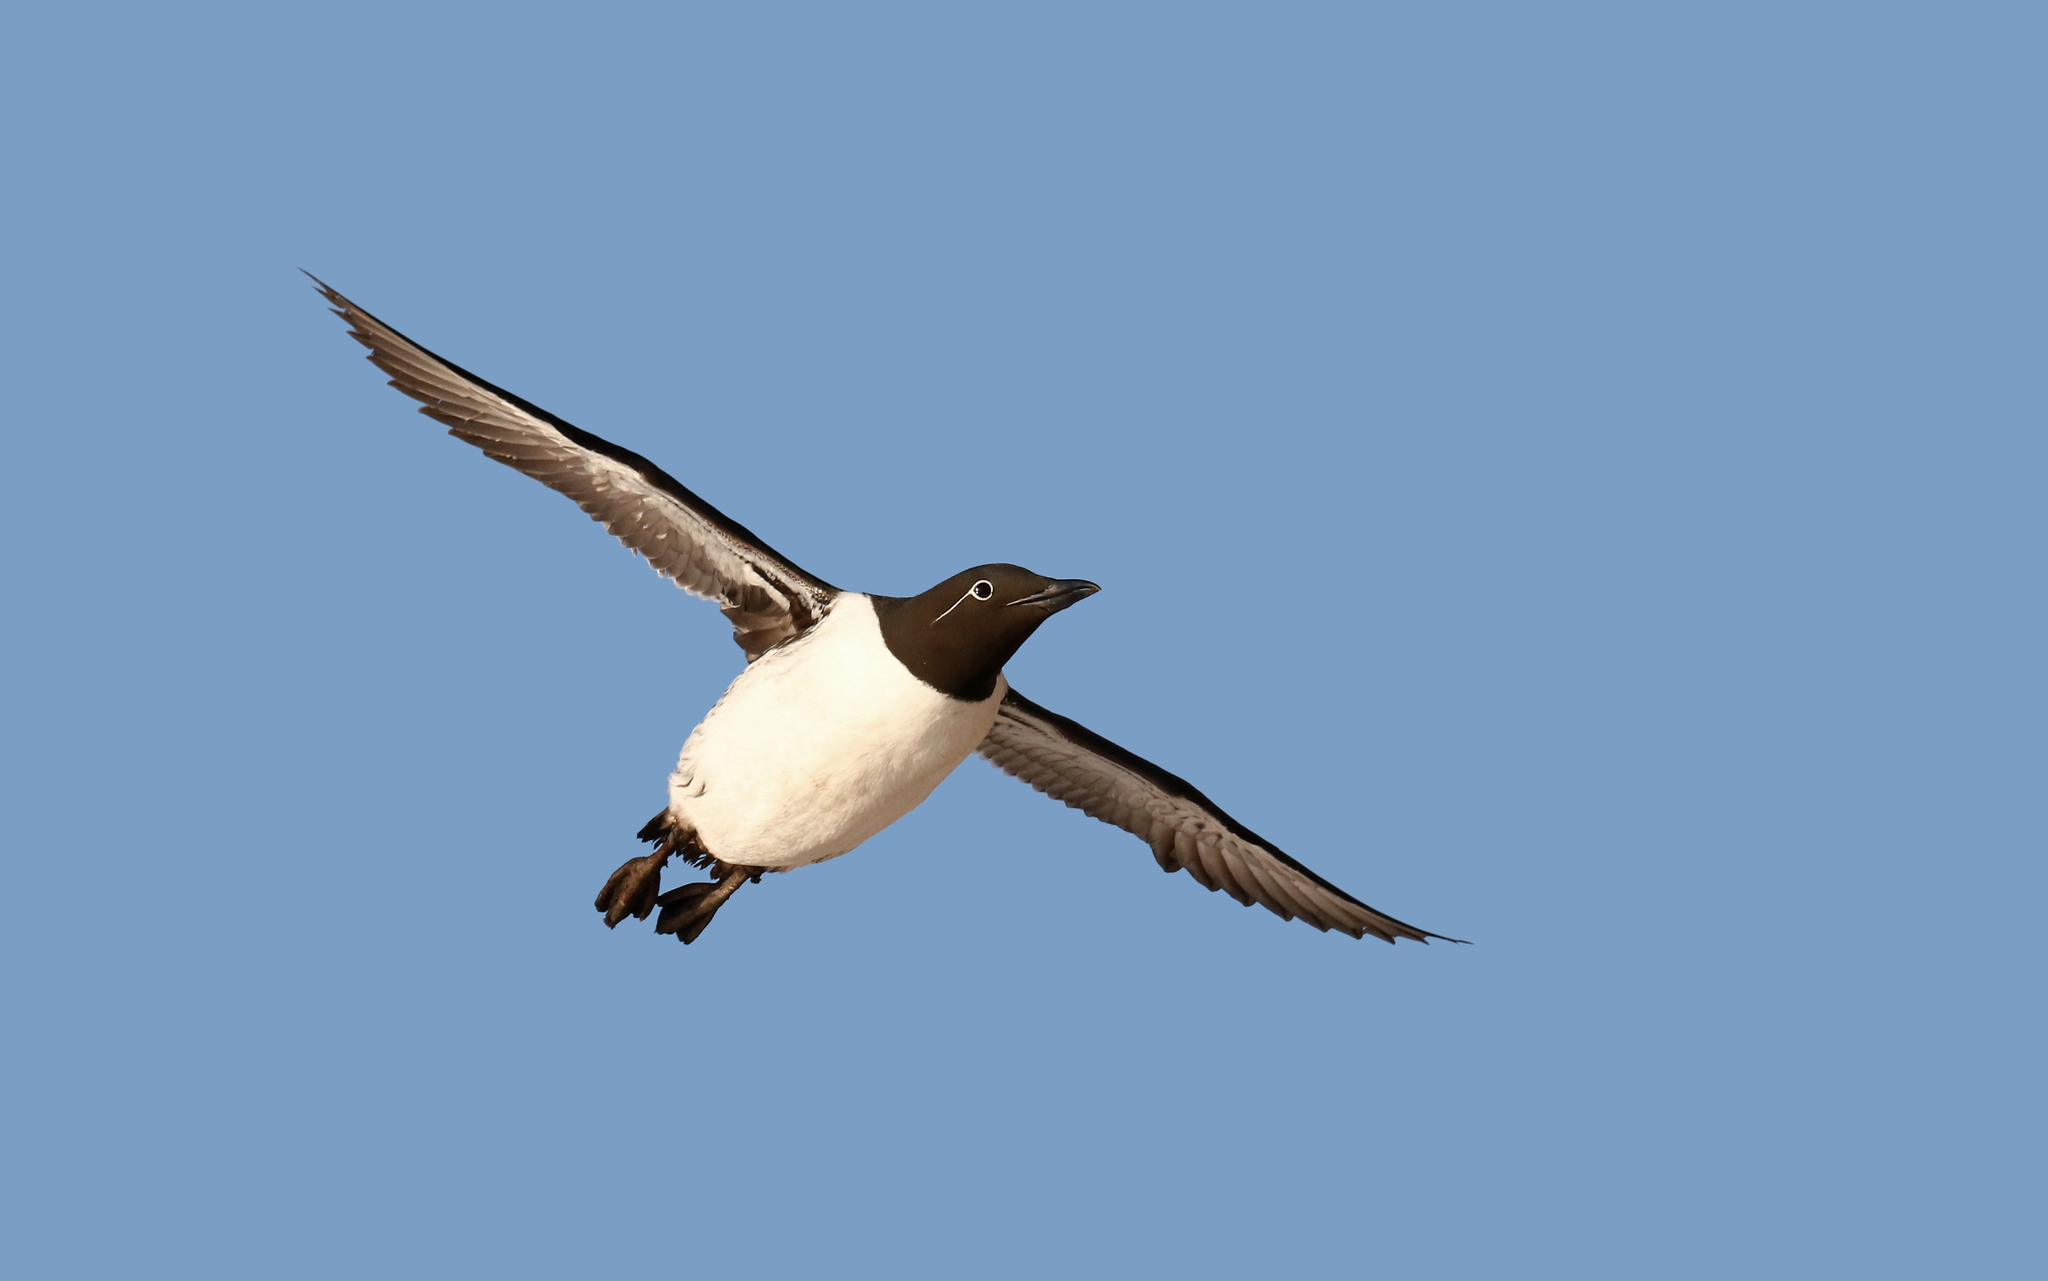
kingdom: Animalia
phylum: Chordata
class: Aves
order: Charadriiformes
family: Alcidae
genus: Uria
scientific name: Uria aalge
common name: Common murre
